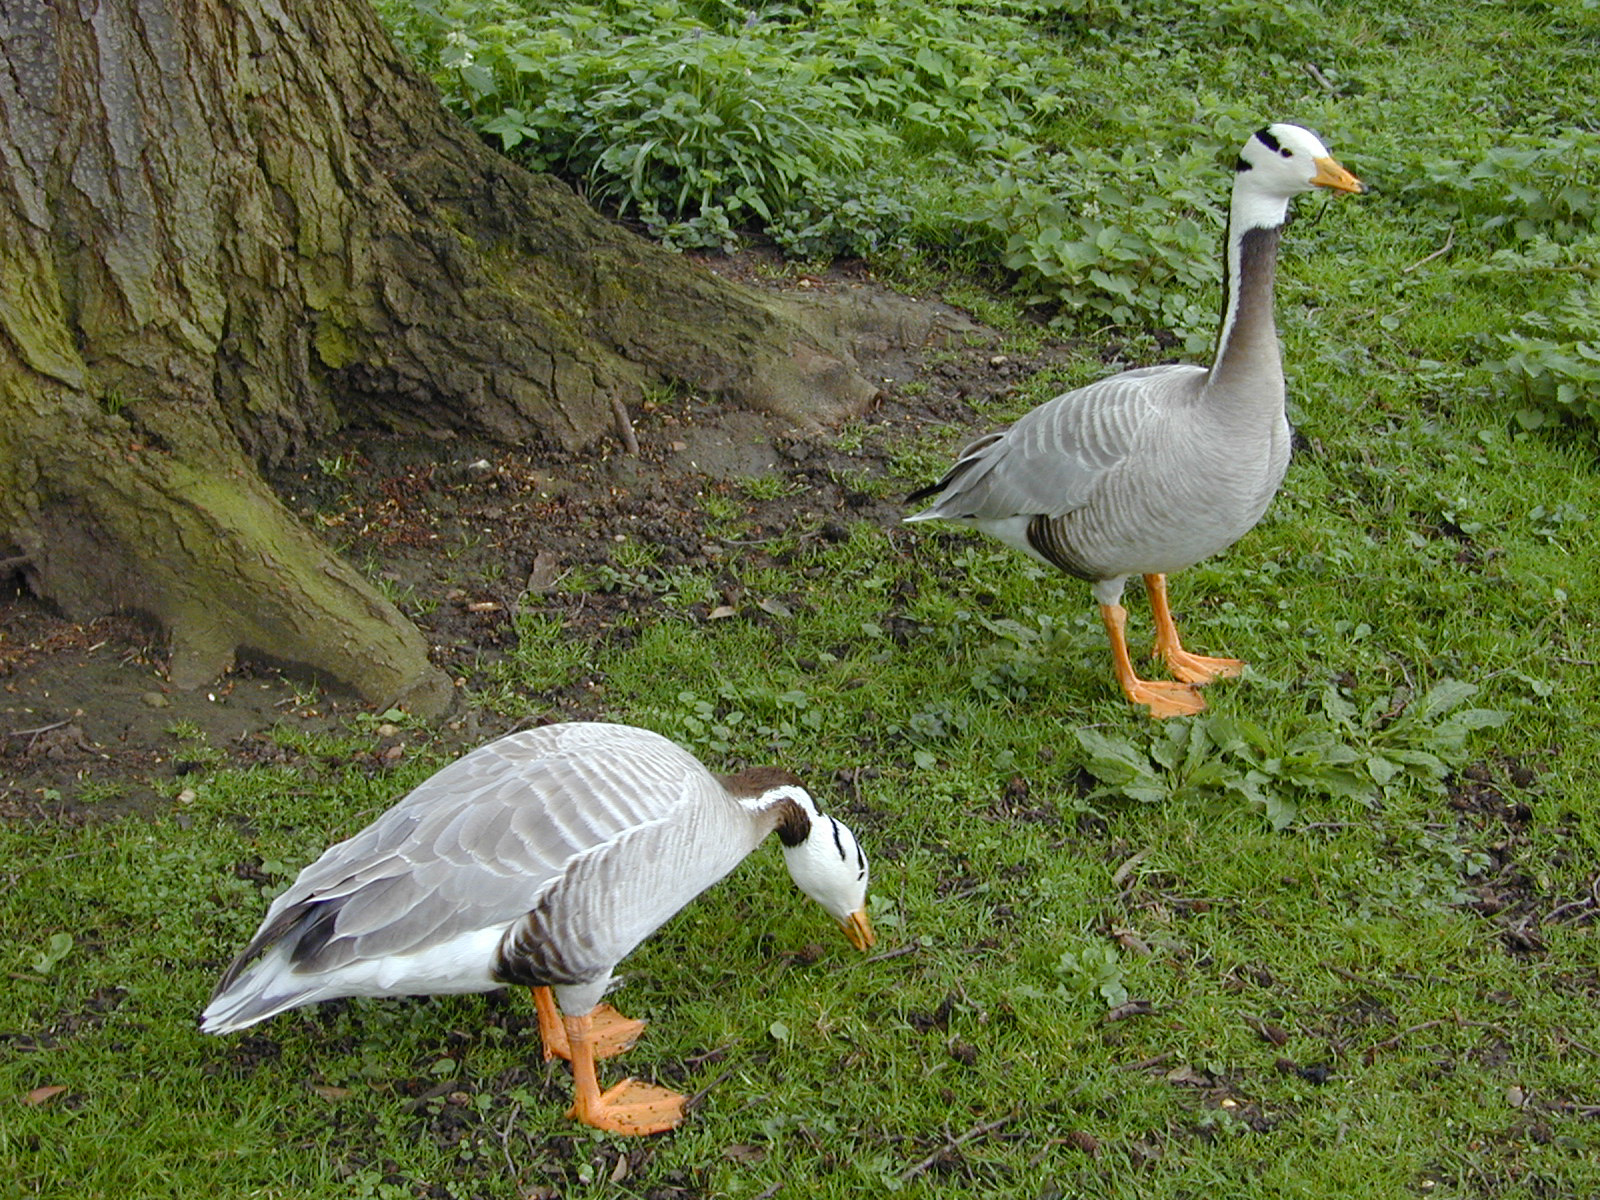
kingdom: Animalia
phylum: Chordata
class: Aves
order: Anseriformes
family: Anatidae
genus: Anser
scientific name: Anser indicus
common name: Bar-headed goose
